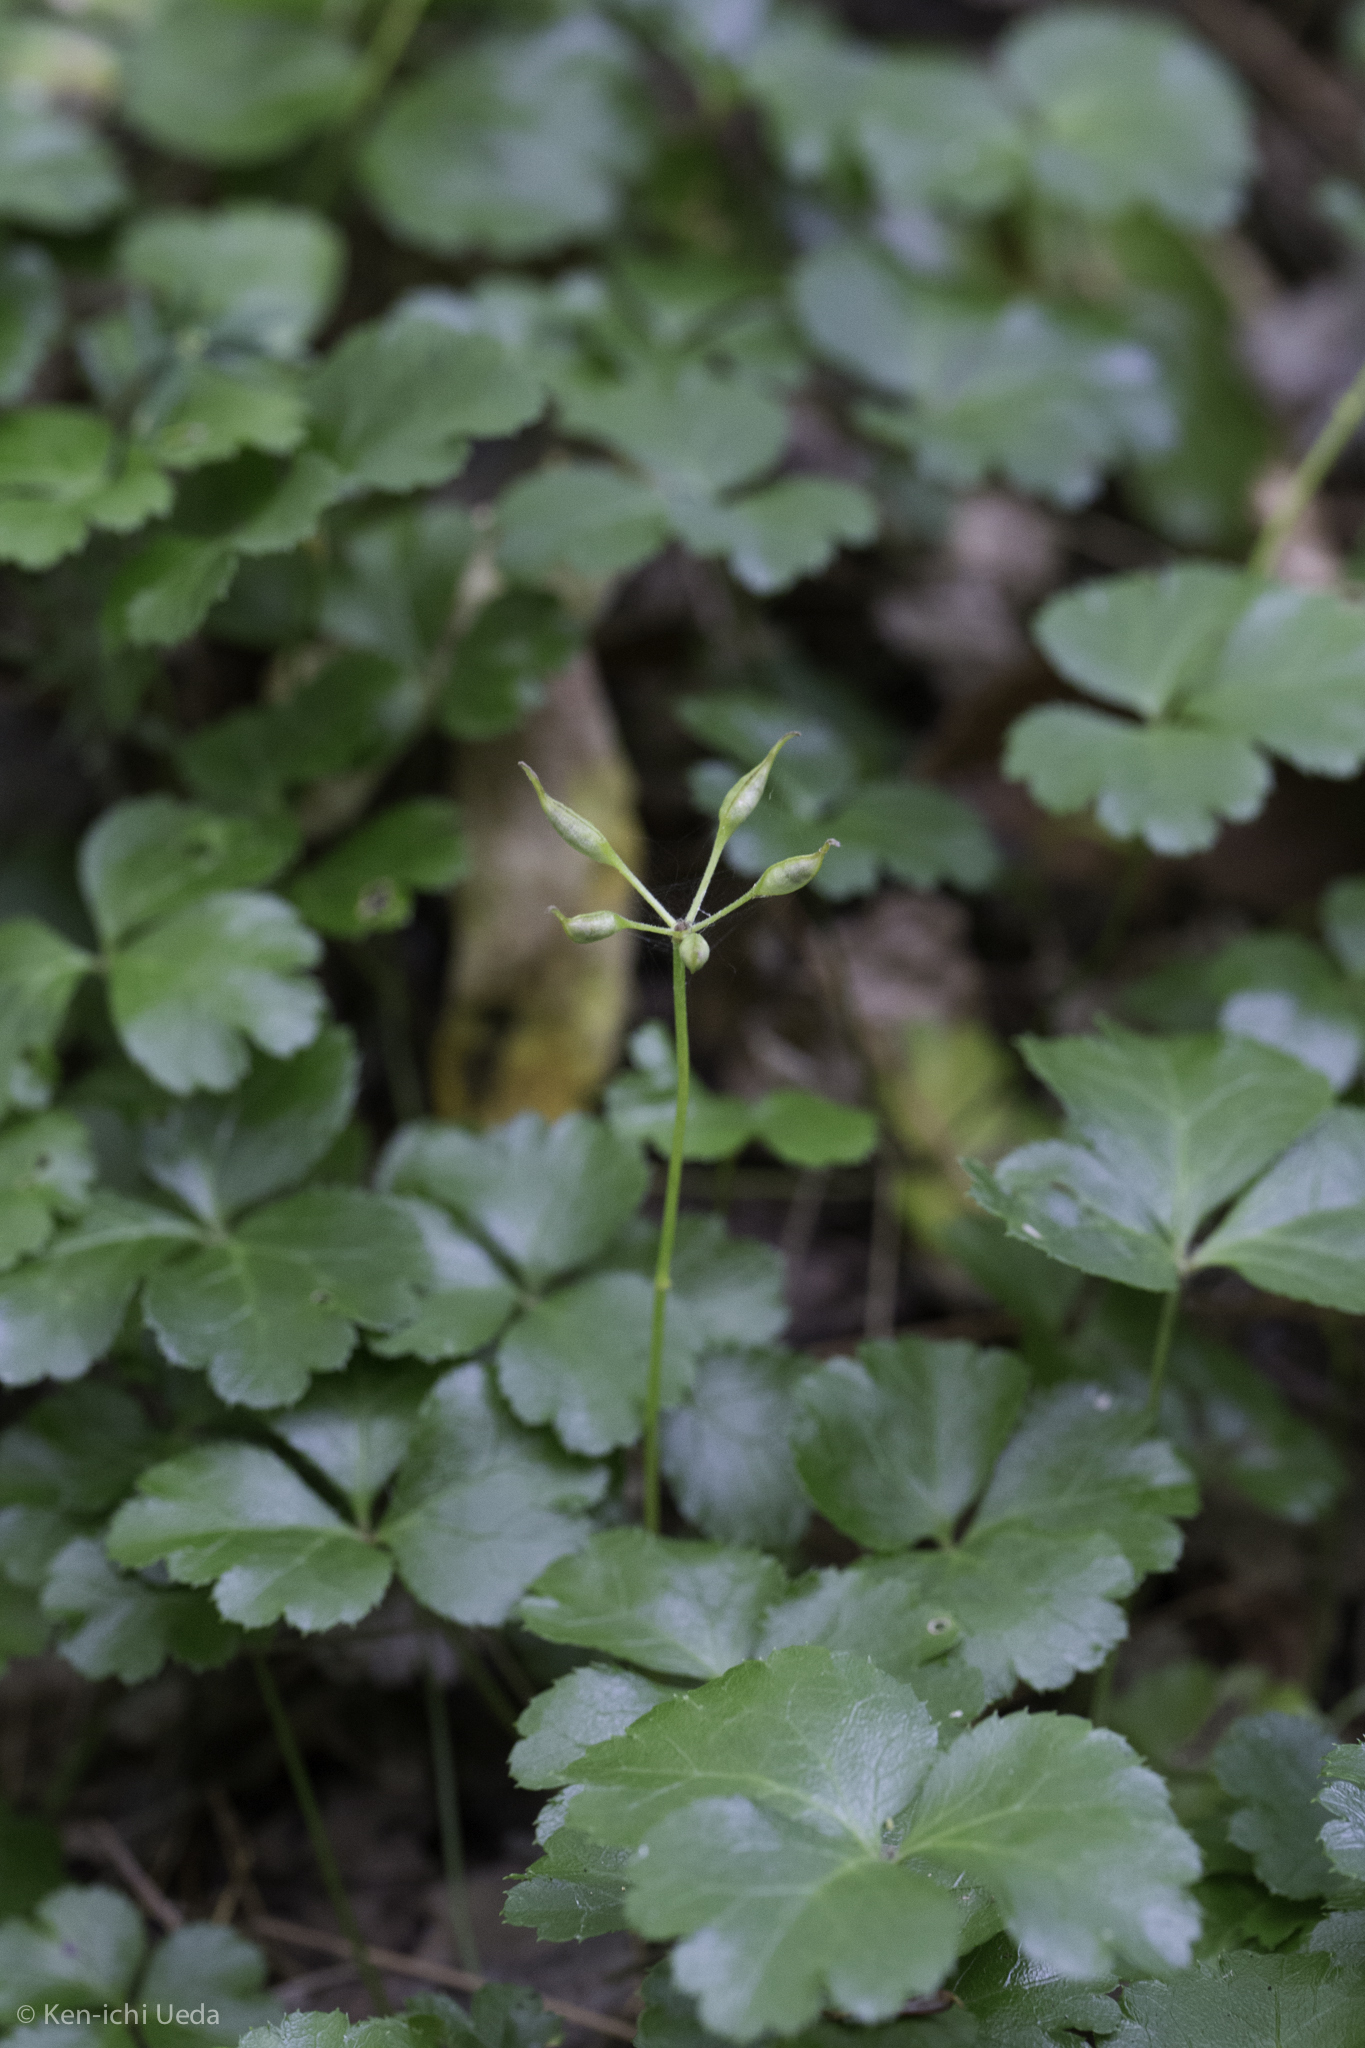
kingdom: Plantae
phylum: Tracheophyta
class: Magnoliopsida
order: Ranunculales
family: Ranunculaceae
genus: Coptis
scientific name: Coptis trifolia
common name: Canker-root
